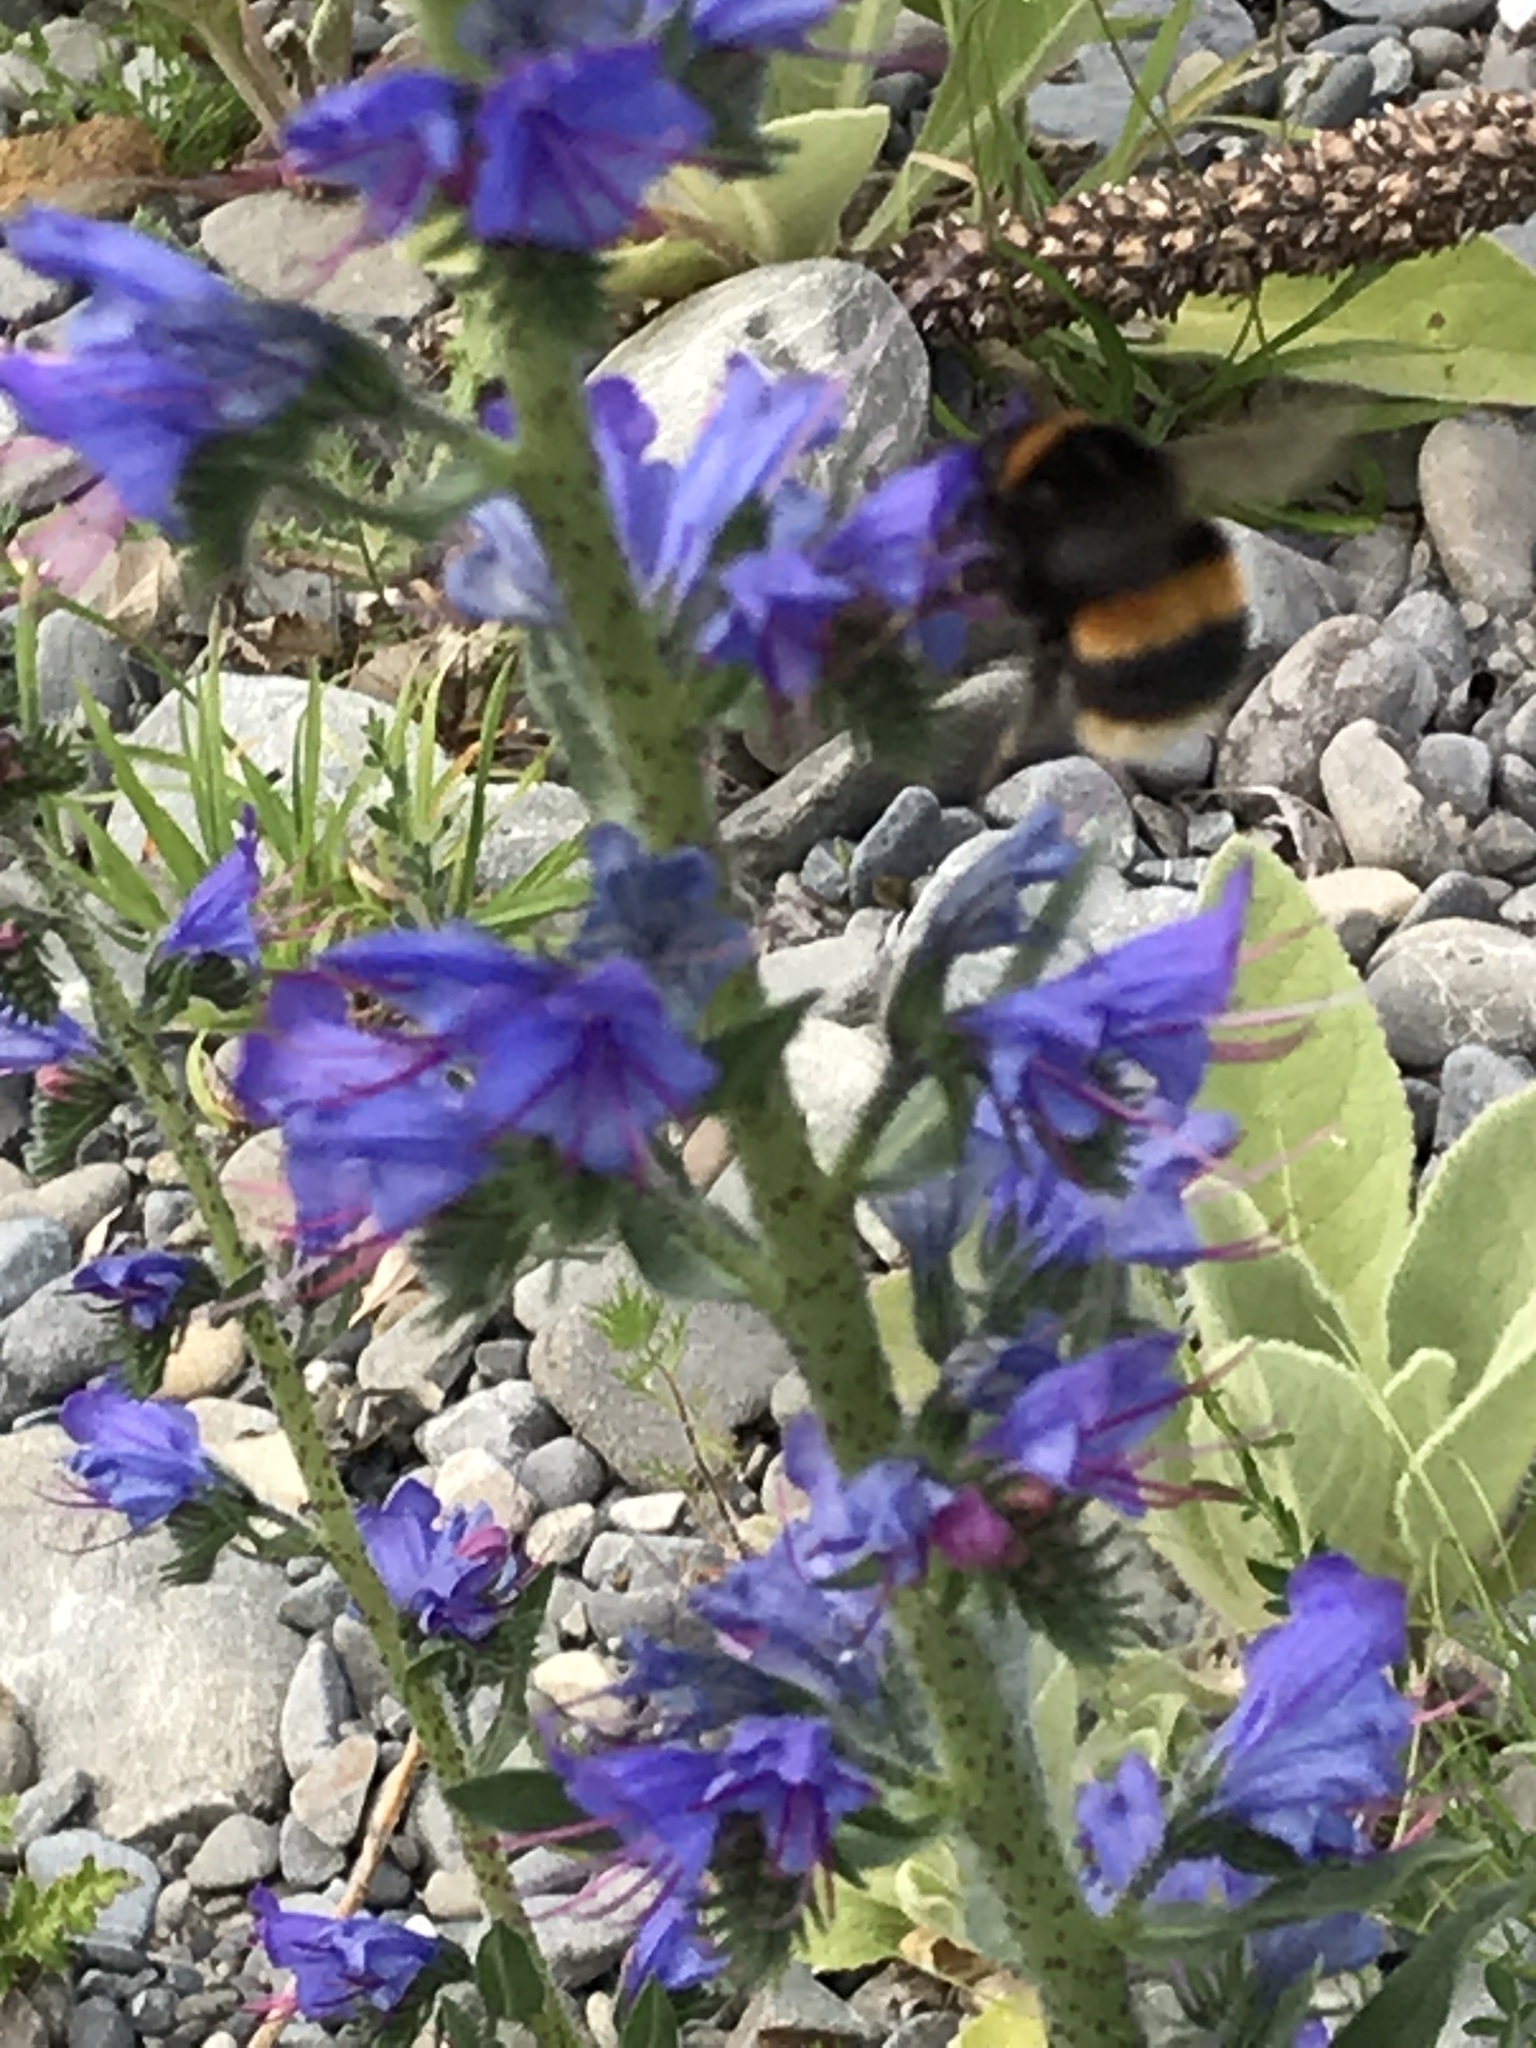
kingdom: Animalia
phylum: Arthropoda
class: Insecta
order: Hymenoptera
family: Apidae
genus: Bombus
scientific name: Bombus terrestris
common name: Buff-tailed bumblebee
